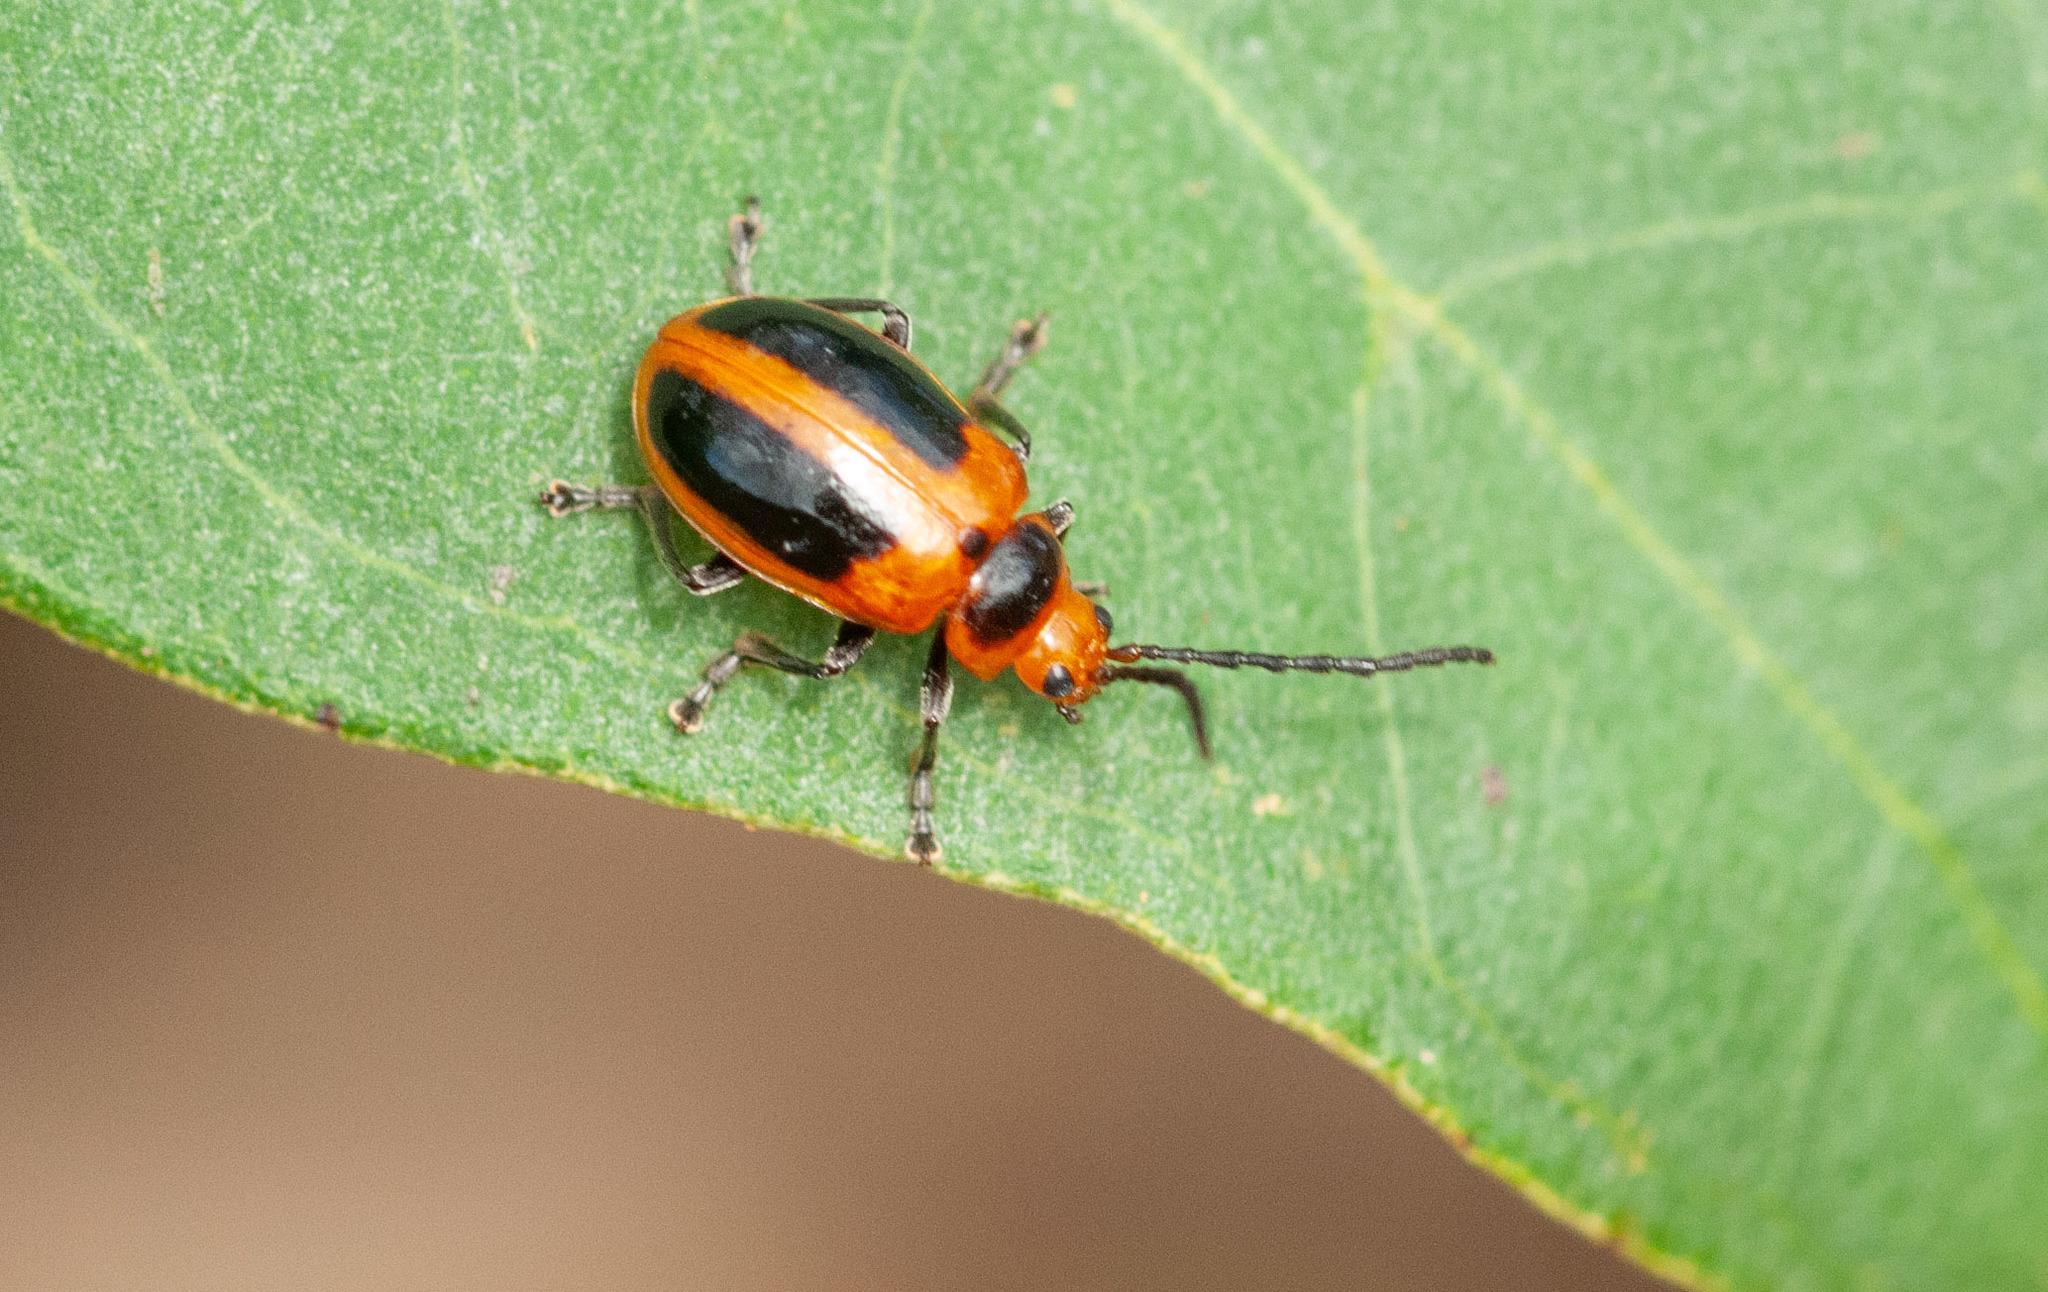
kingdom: Animalia
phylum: Arthropoda
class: Insecta
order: Coleoptera
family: Chrysomelidae
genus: Oides
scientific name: Oides
